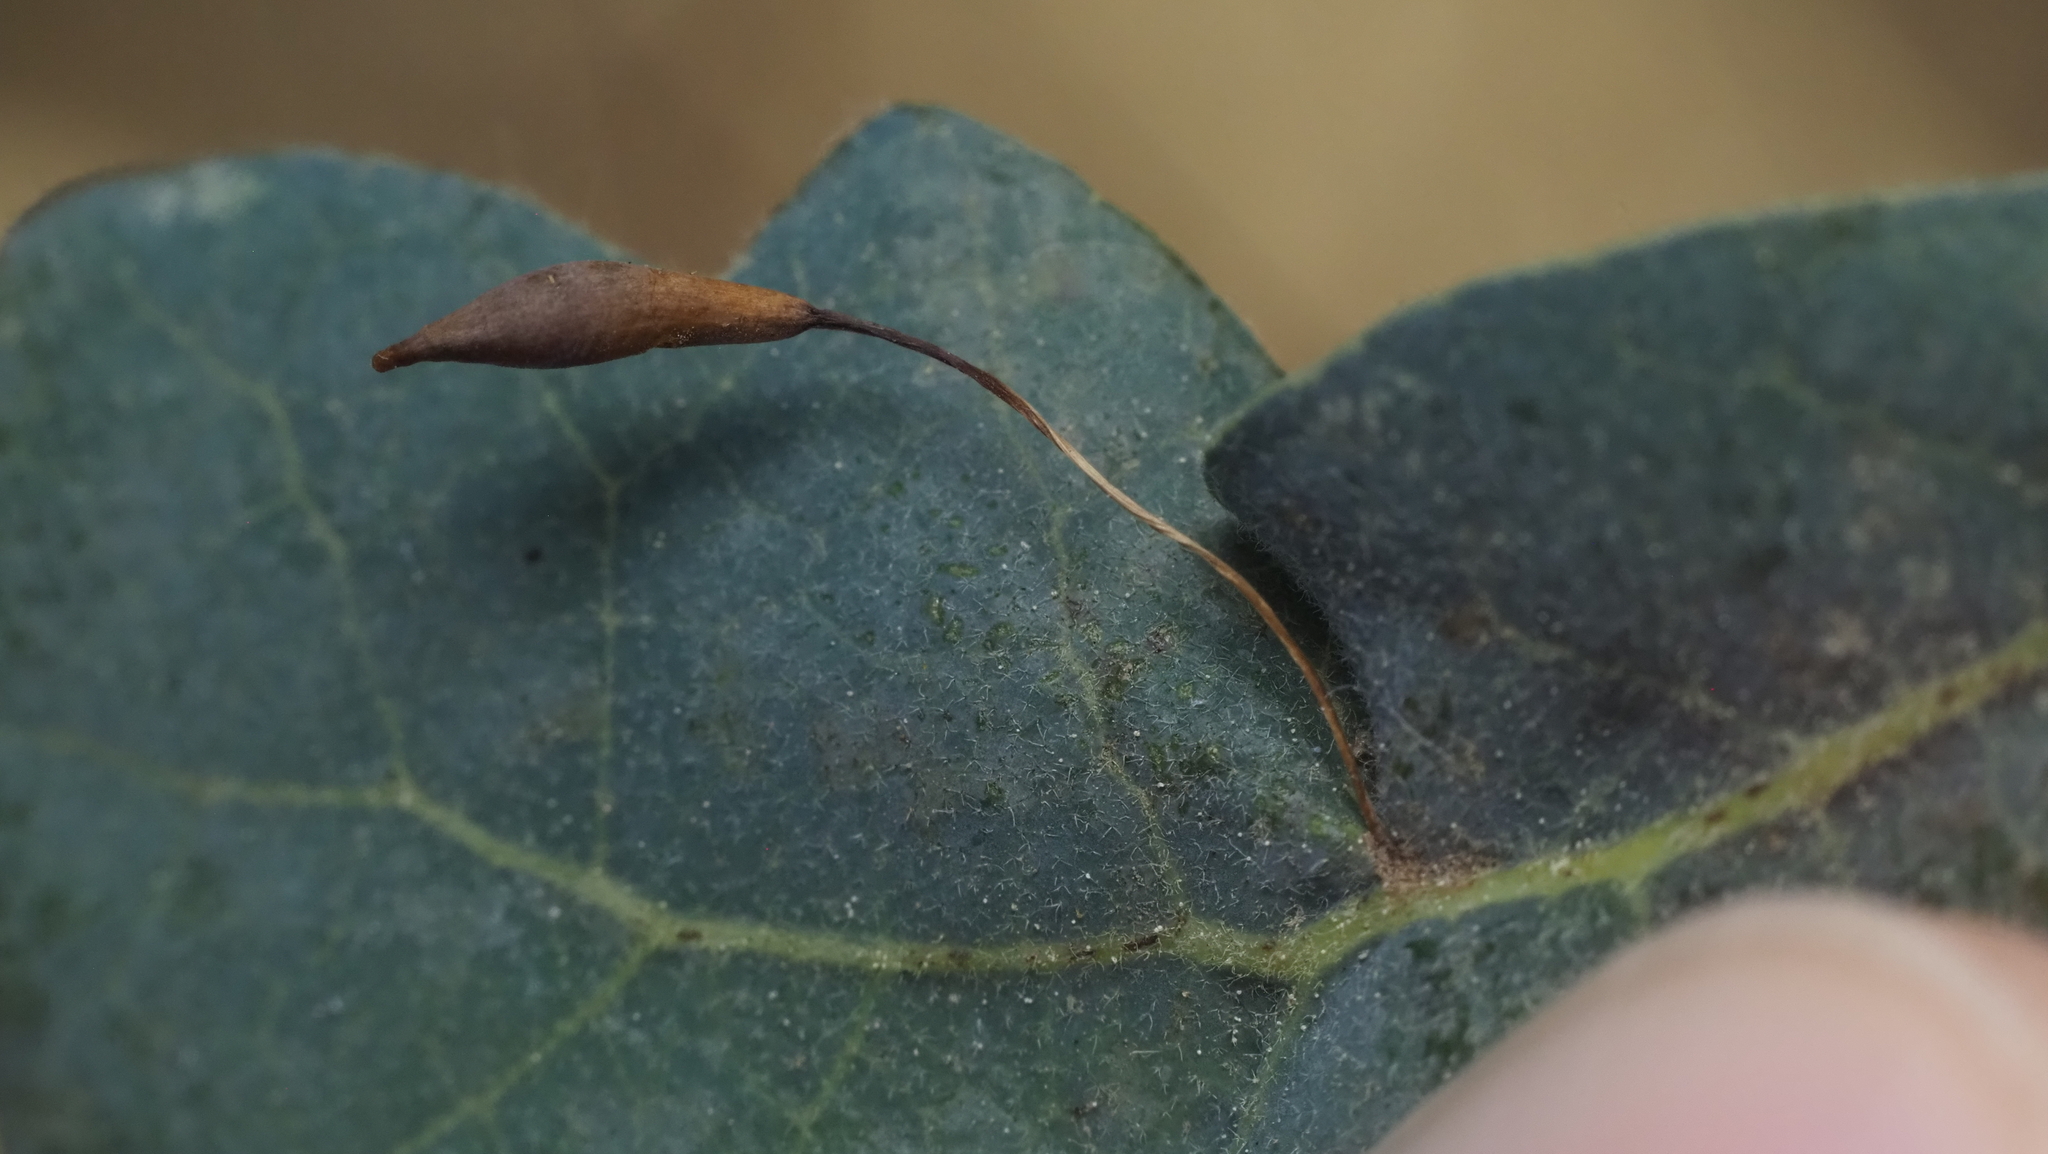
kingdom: Animalia
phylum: Arthropoda
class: Insecta
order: Hymenoptera
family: Cynipidae
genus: Andricus
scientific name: Andricus
